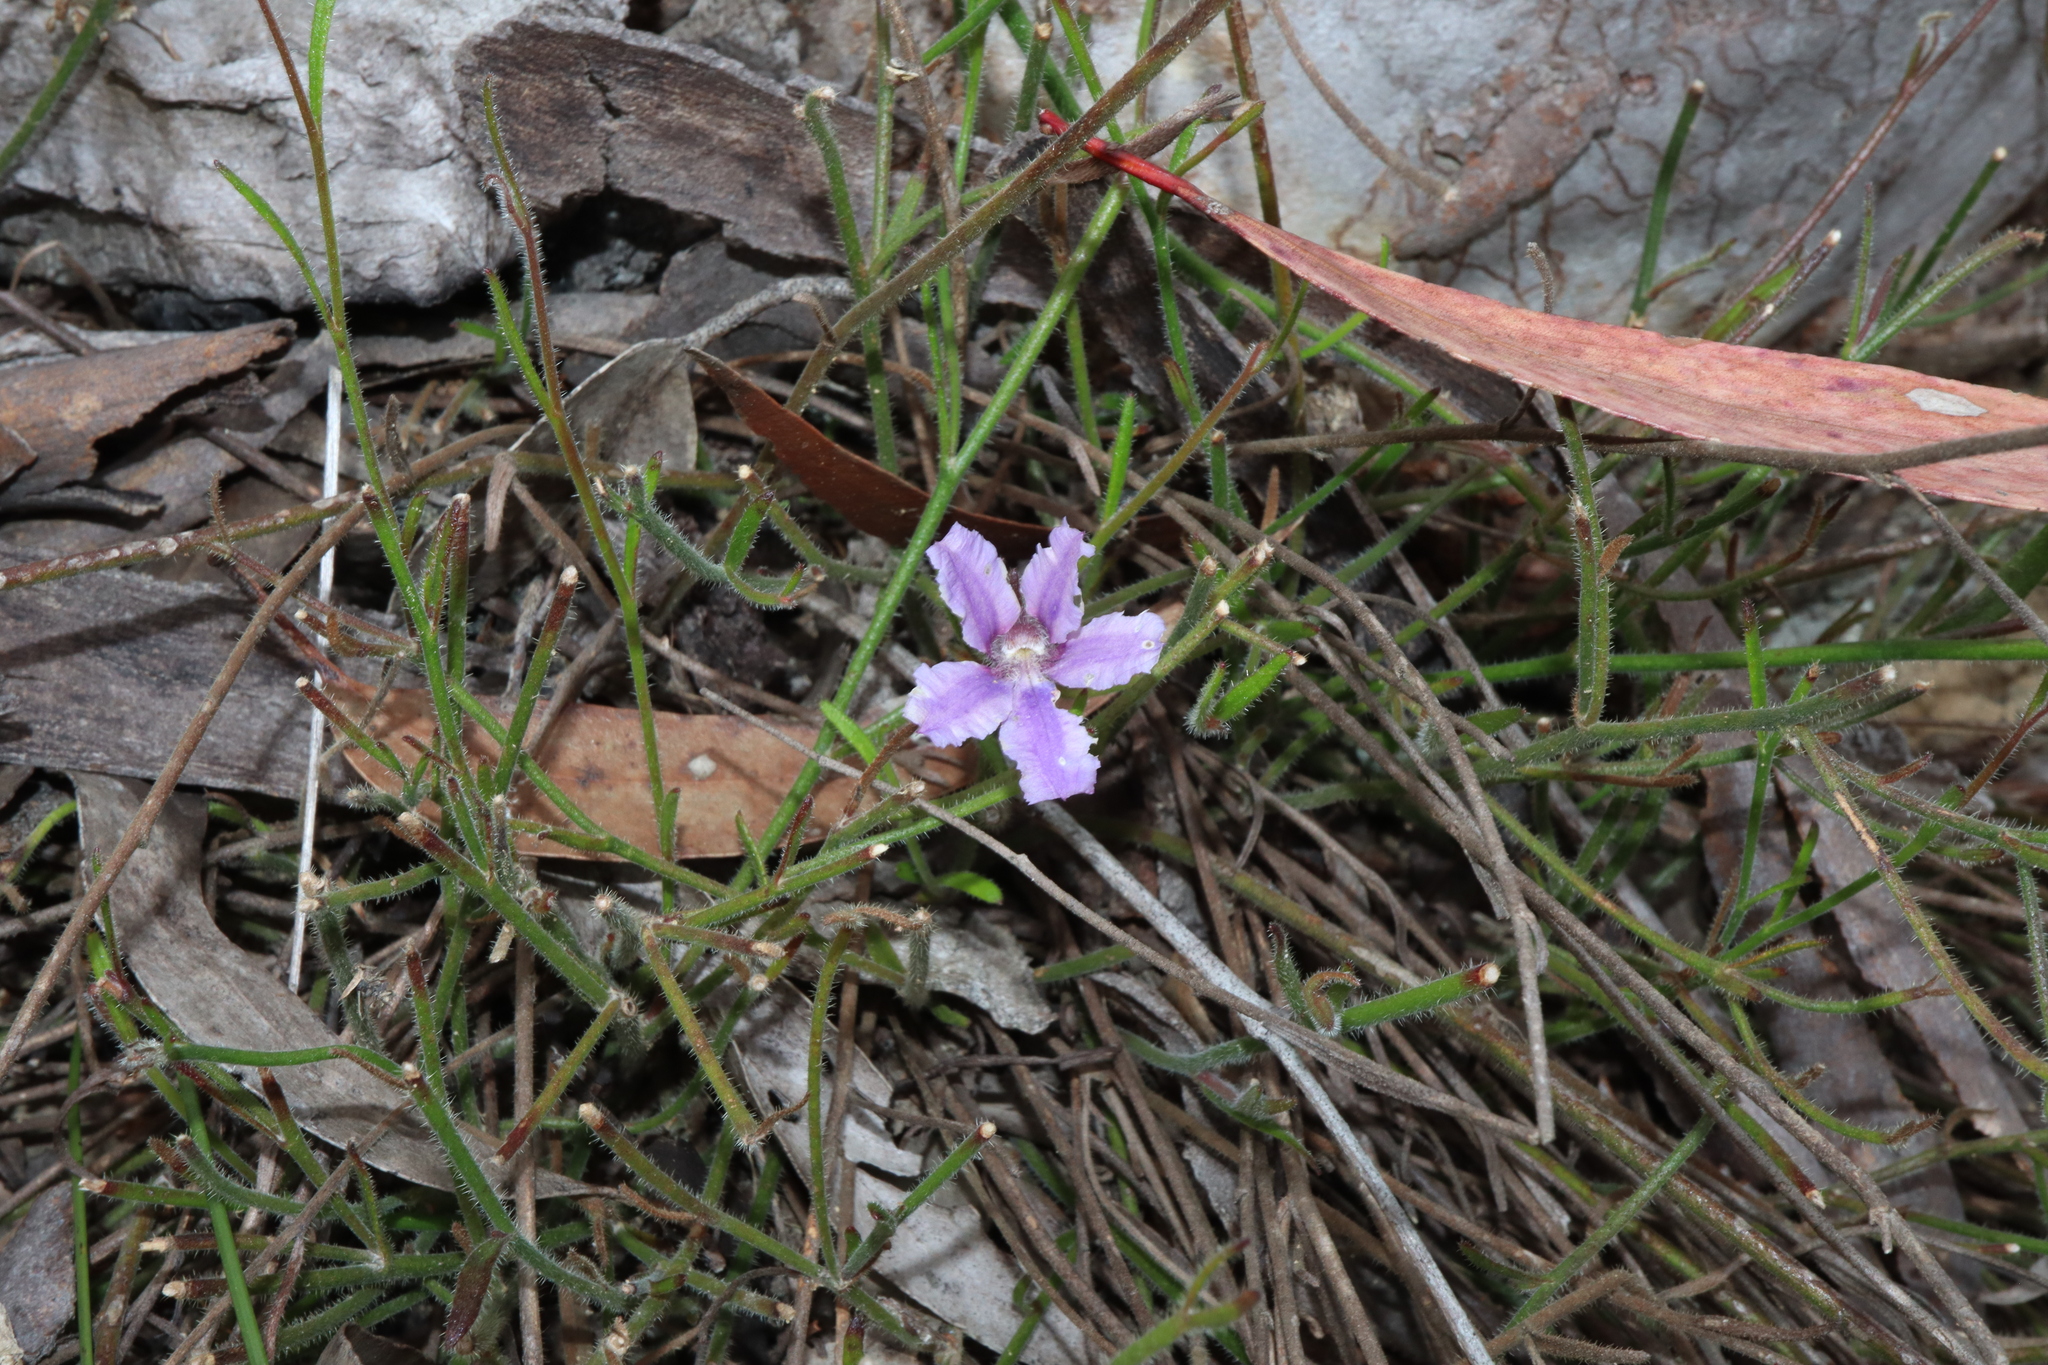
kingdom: Plantae
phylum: Tracheophyta
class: Magnoliopsida
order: Asterales
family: Goodeniaceae
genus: Scaevola
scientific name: Scaevola ramosissima
